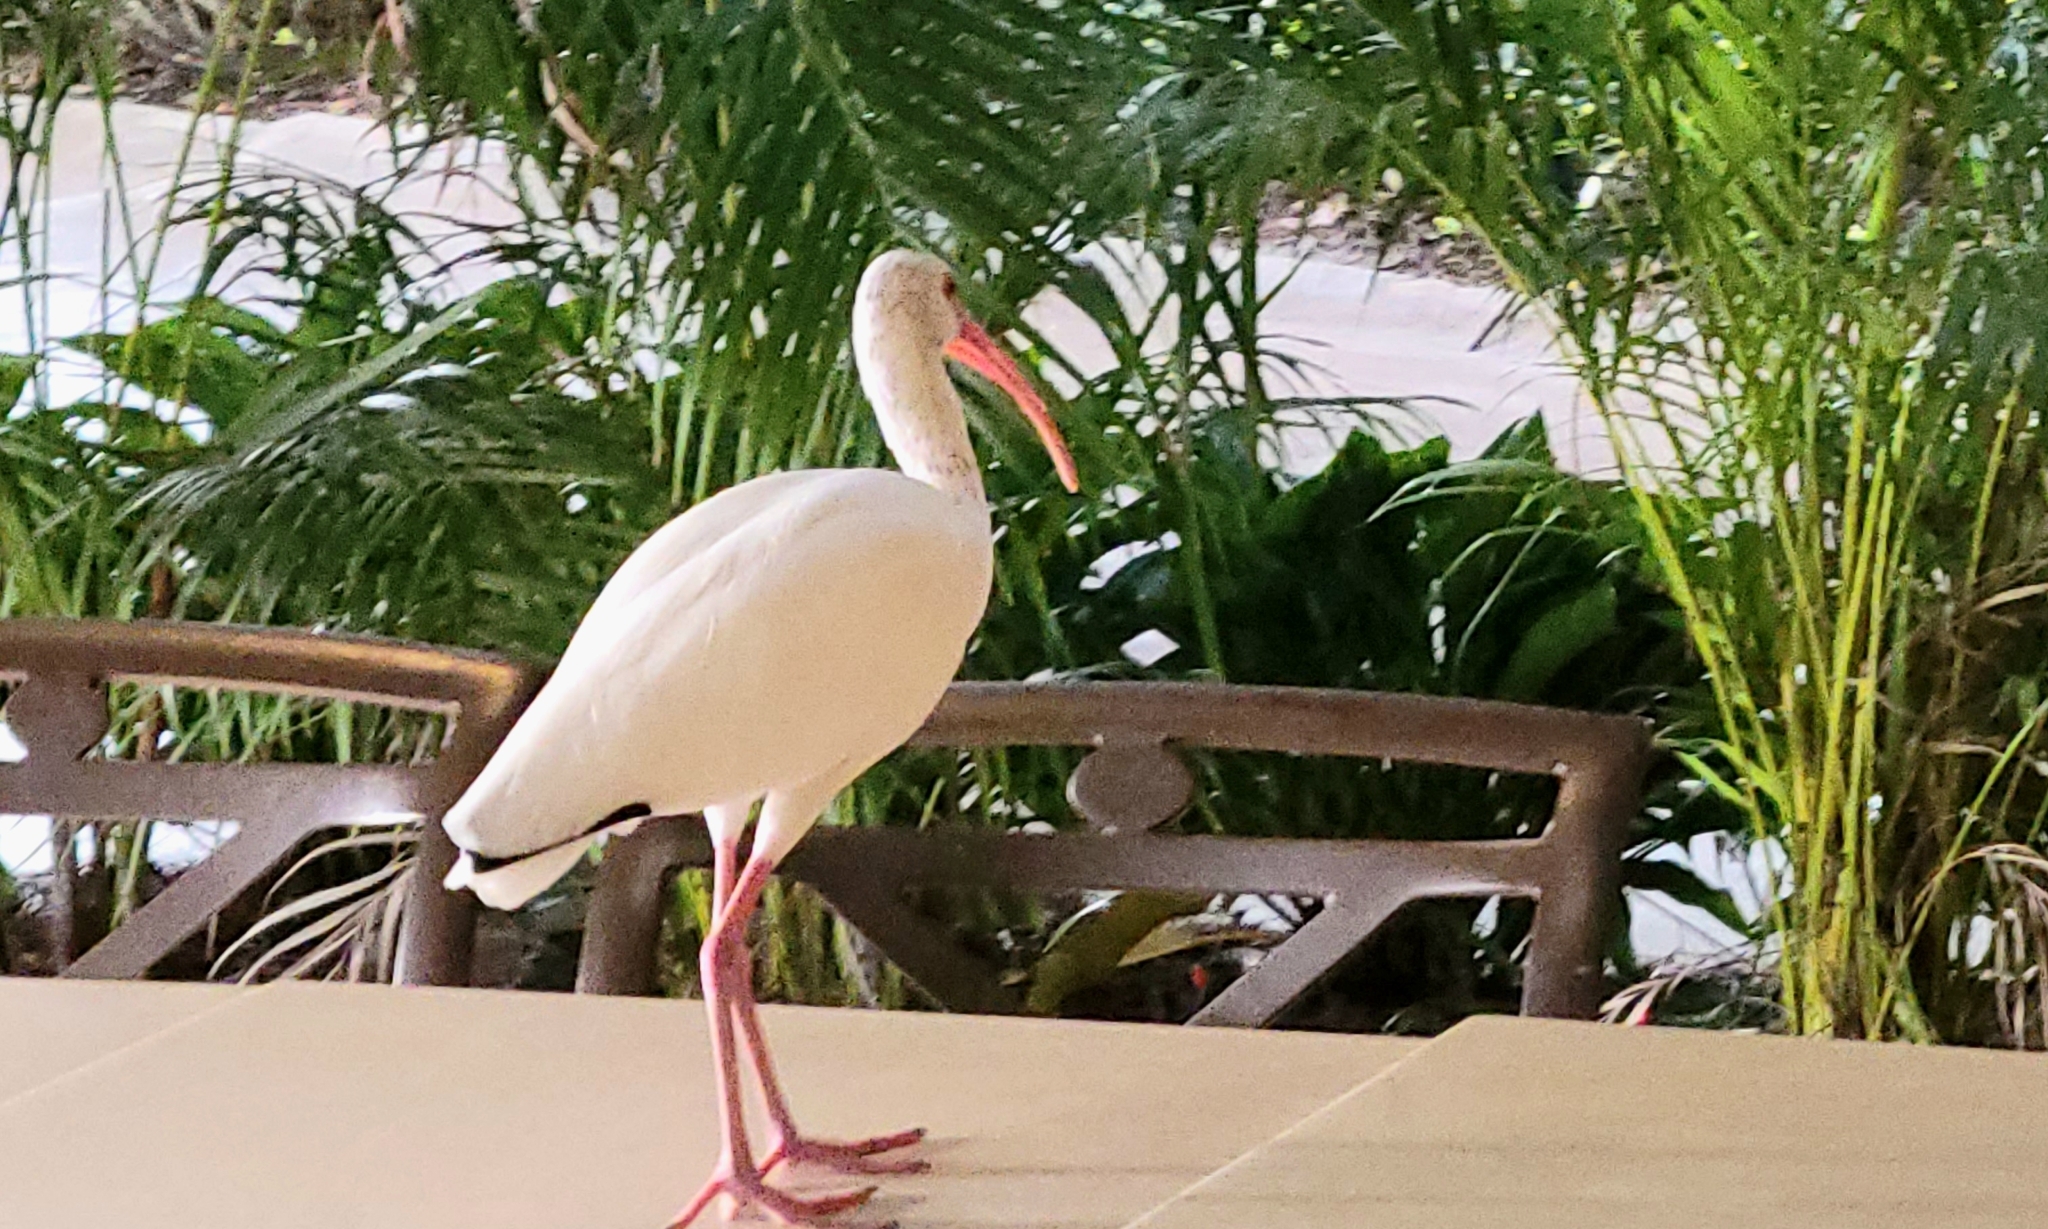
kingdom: Animalia
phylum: Chordata
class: Aves
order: Pelecaniformes
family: Threskiornithidae
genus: Eudocimus
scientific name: Eudocimus albus
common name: White ibis
